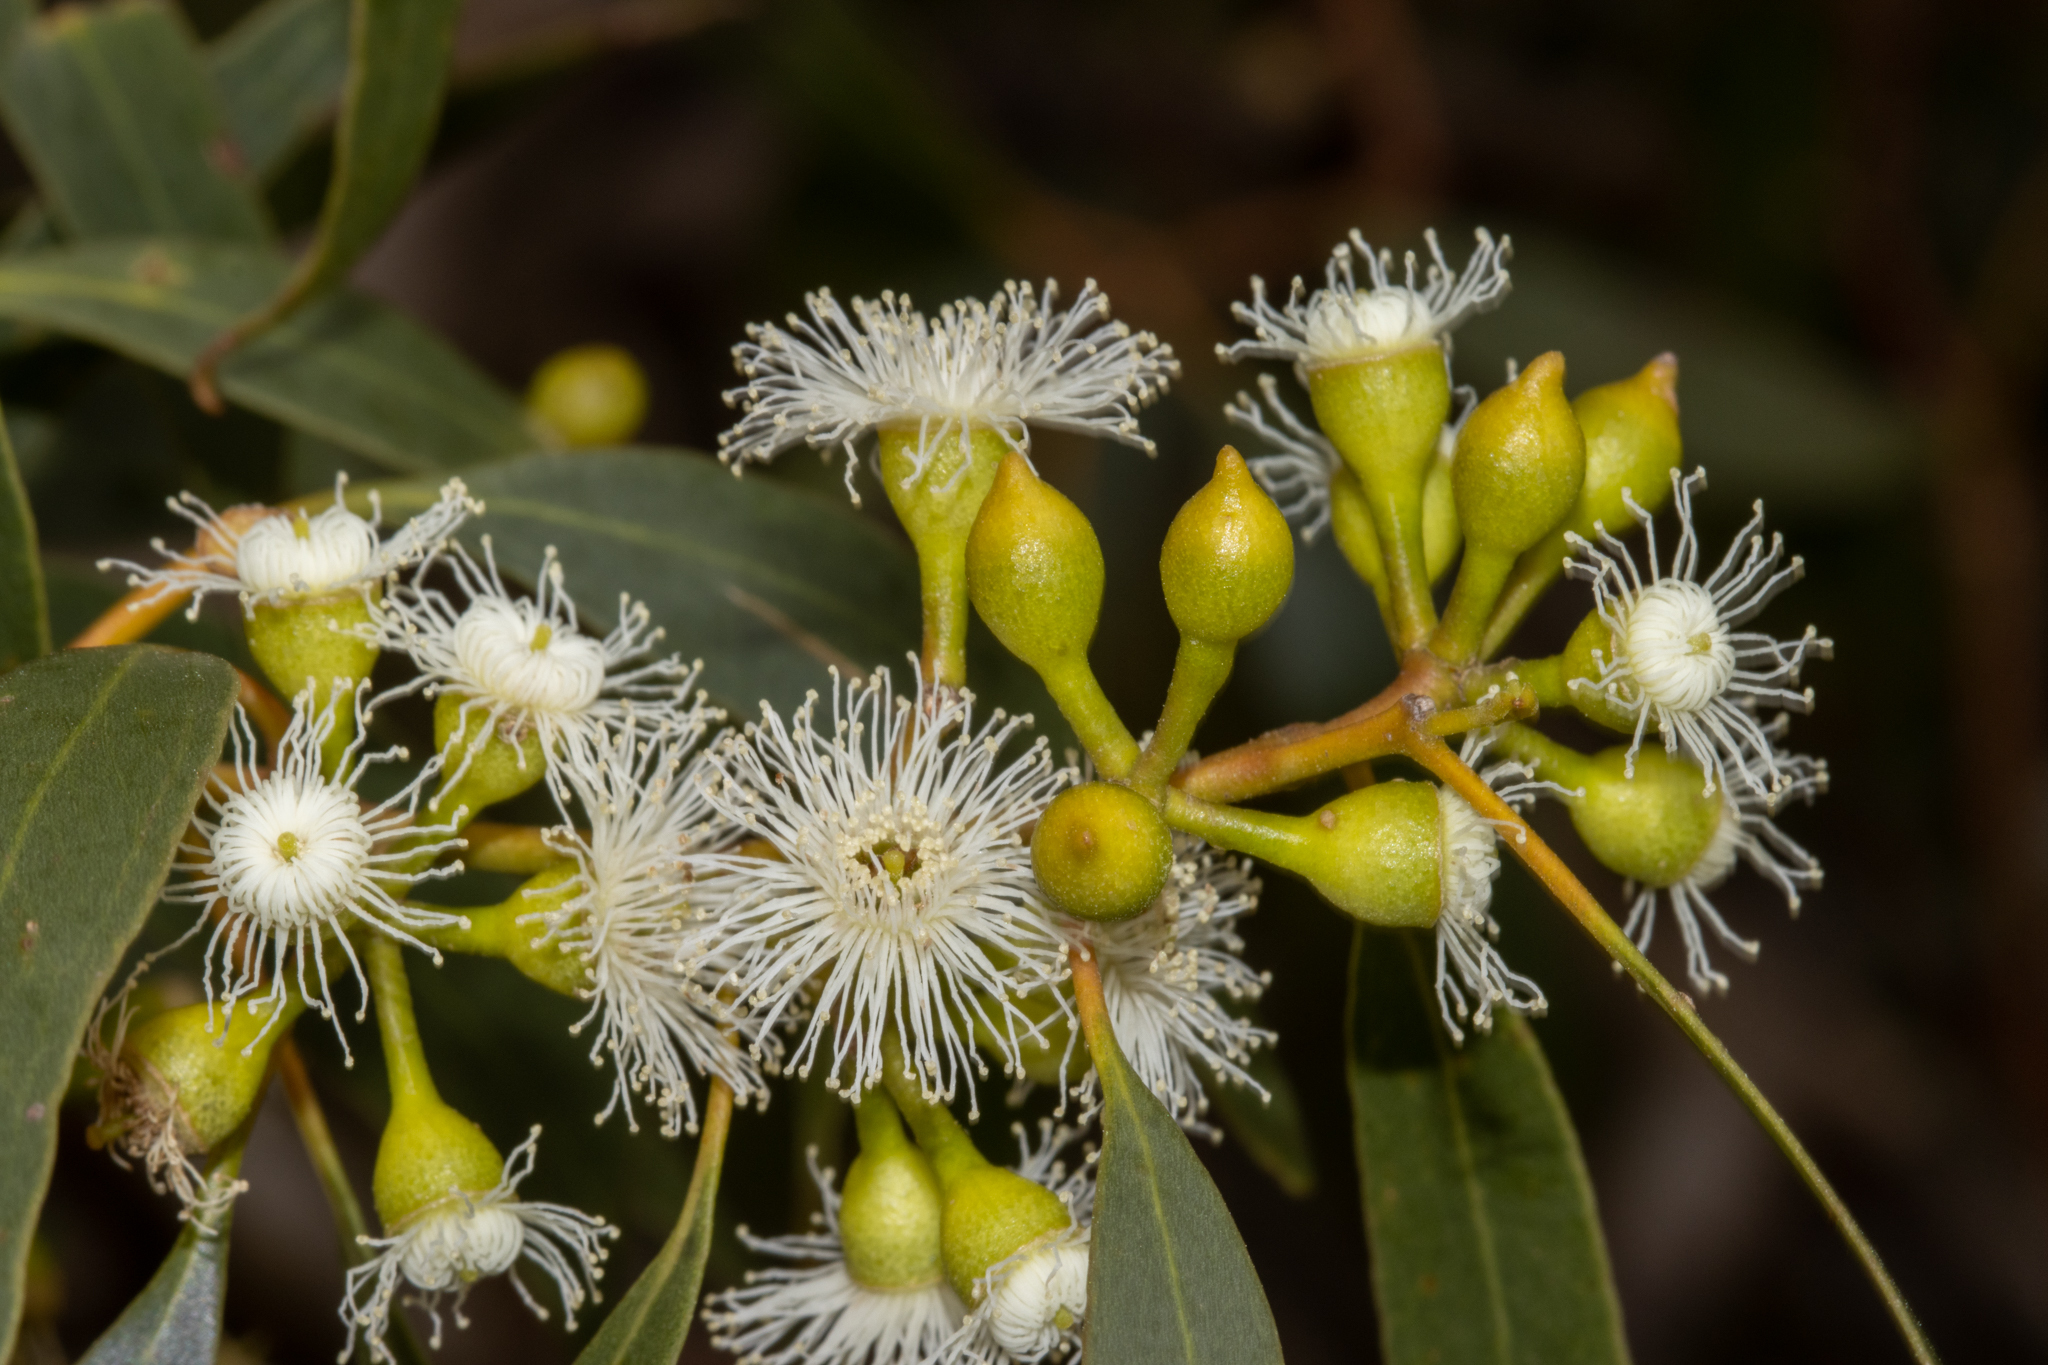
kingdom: Plantae
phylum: Tracheophyta
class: Magnoliopsida
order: Myrtales
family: Myrtaceae
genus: Eucalyptus
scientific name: Eucalyptus porosa
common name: Quorn mallee
